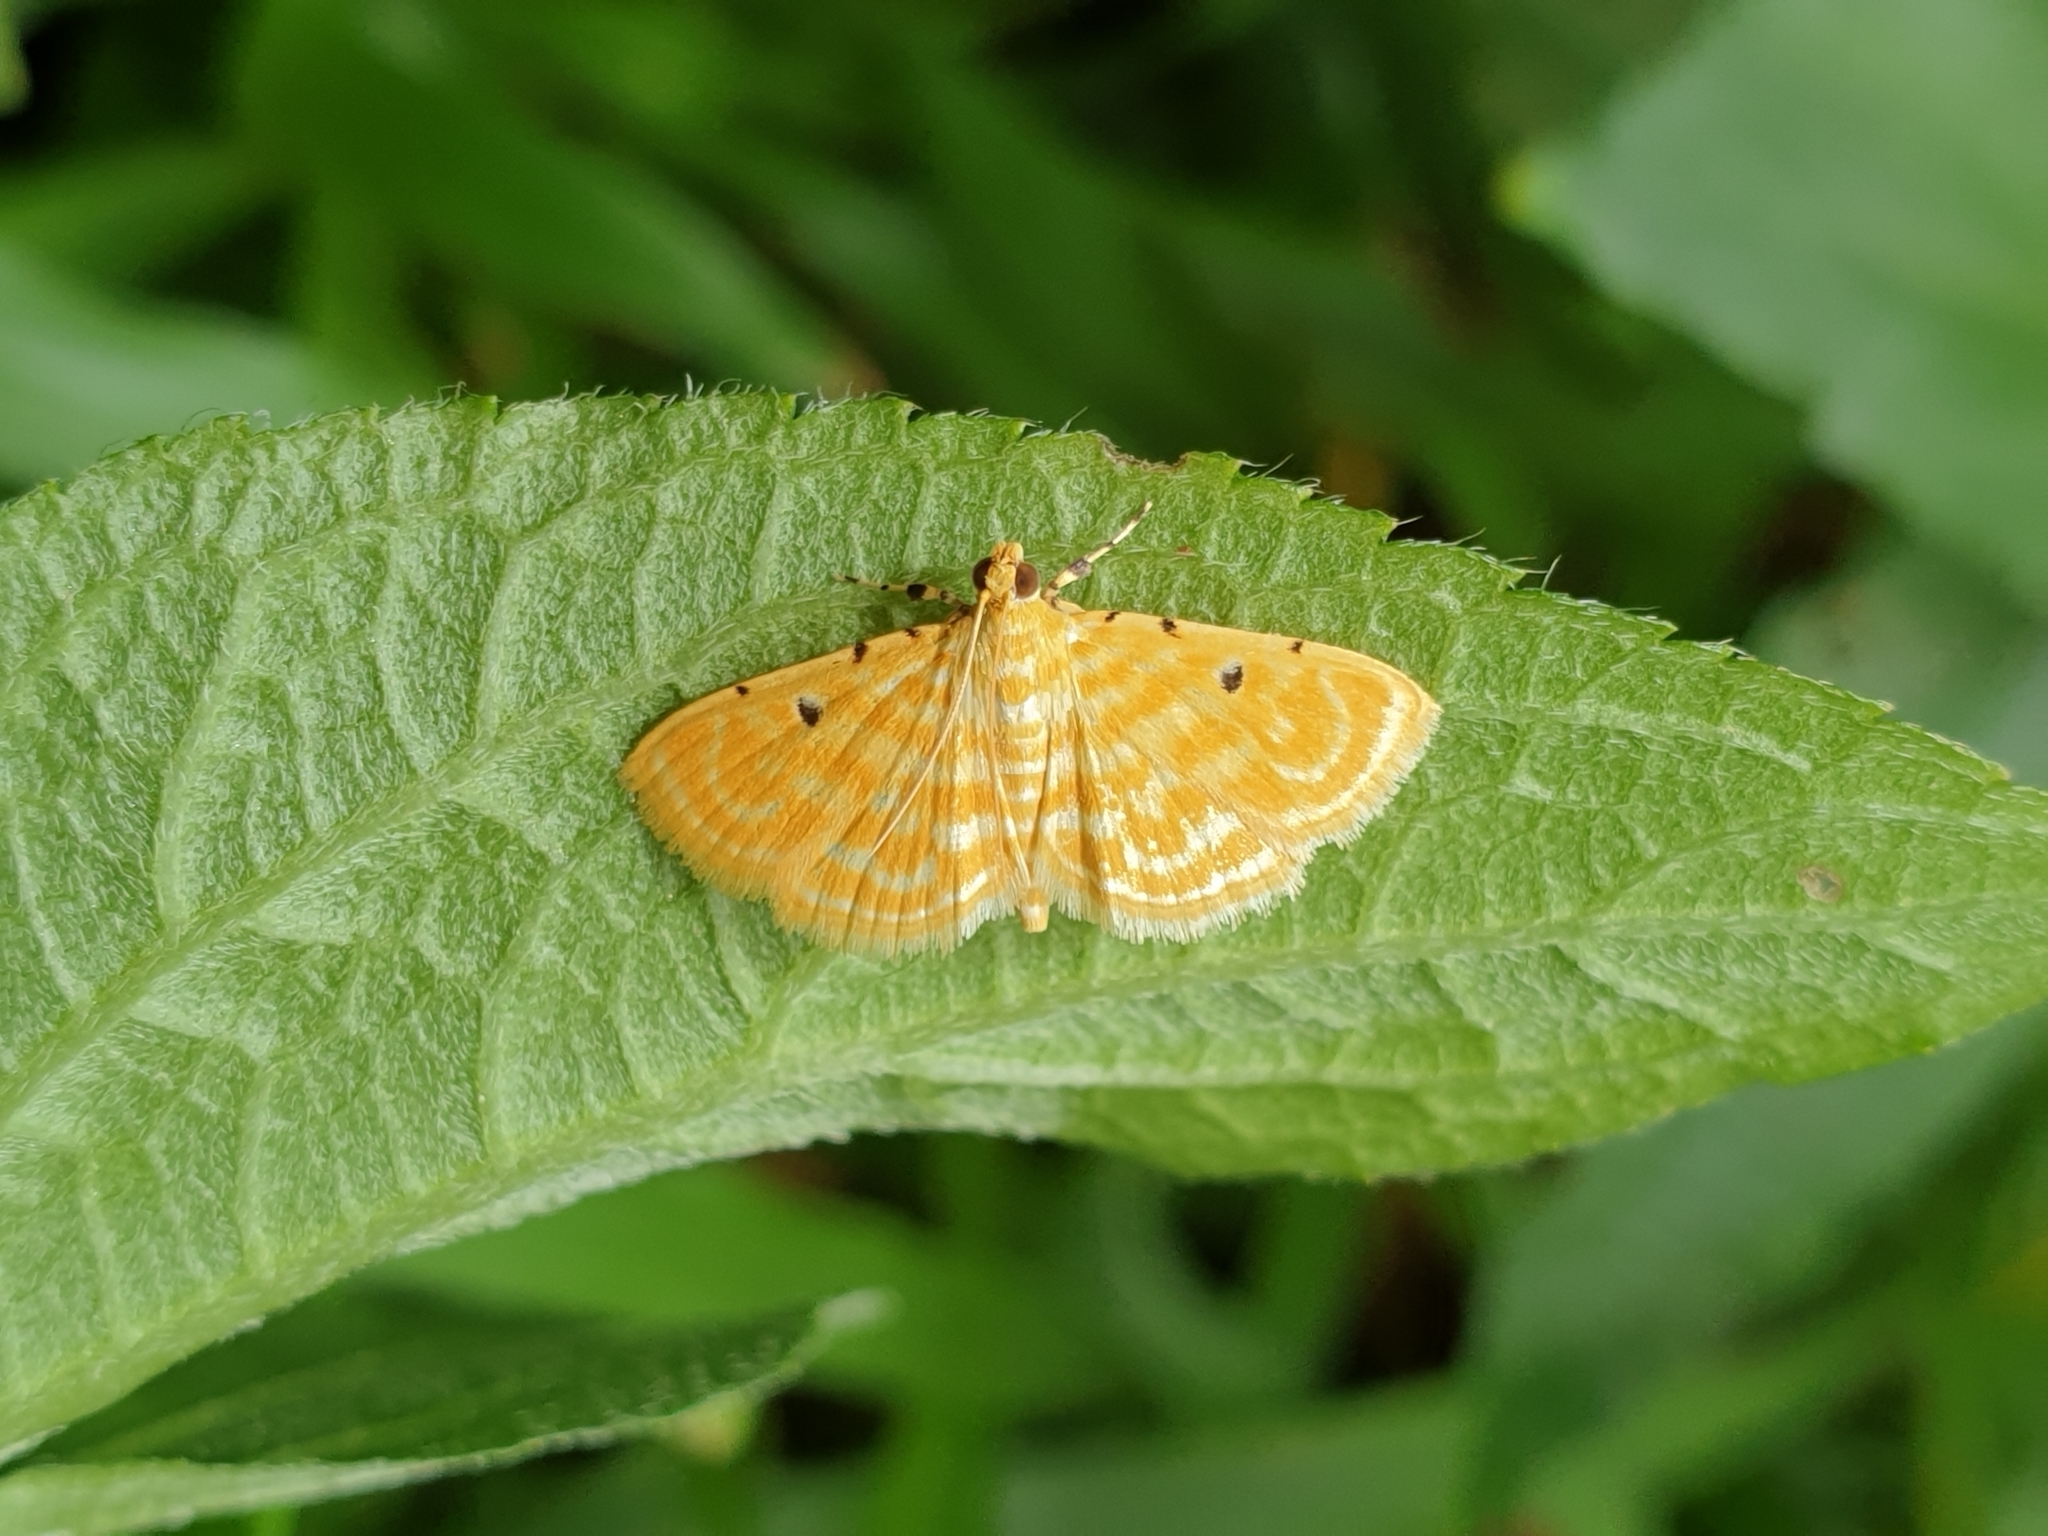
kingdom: Animalia
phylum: Arthropoda
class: Insecta
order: Lepidoptera
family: Crambidae
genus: Notarcha
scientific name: Notarcha aurolinealis
